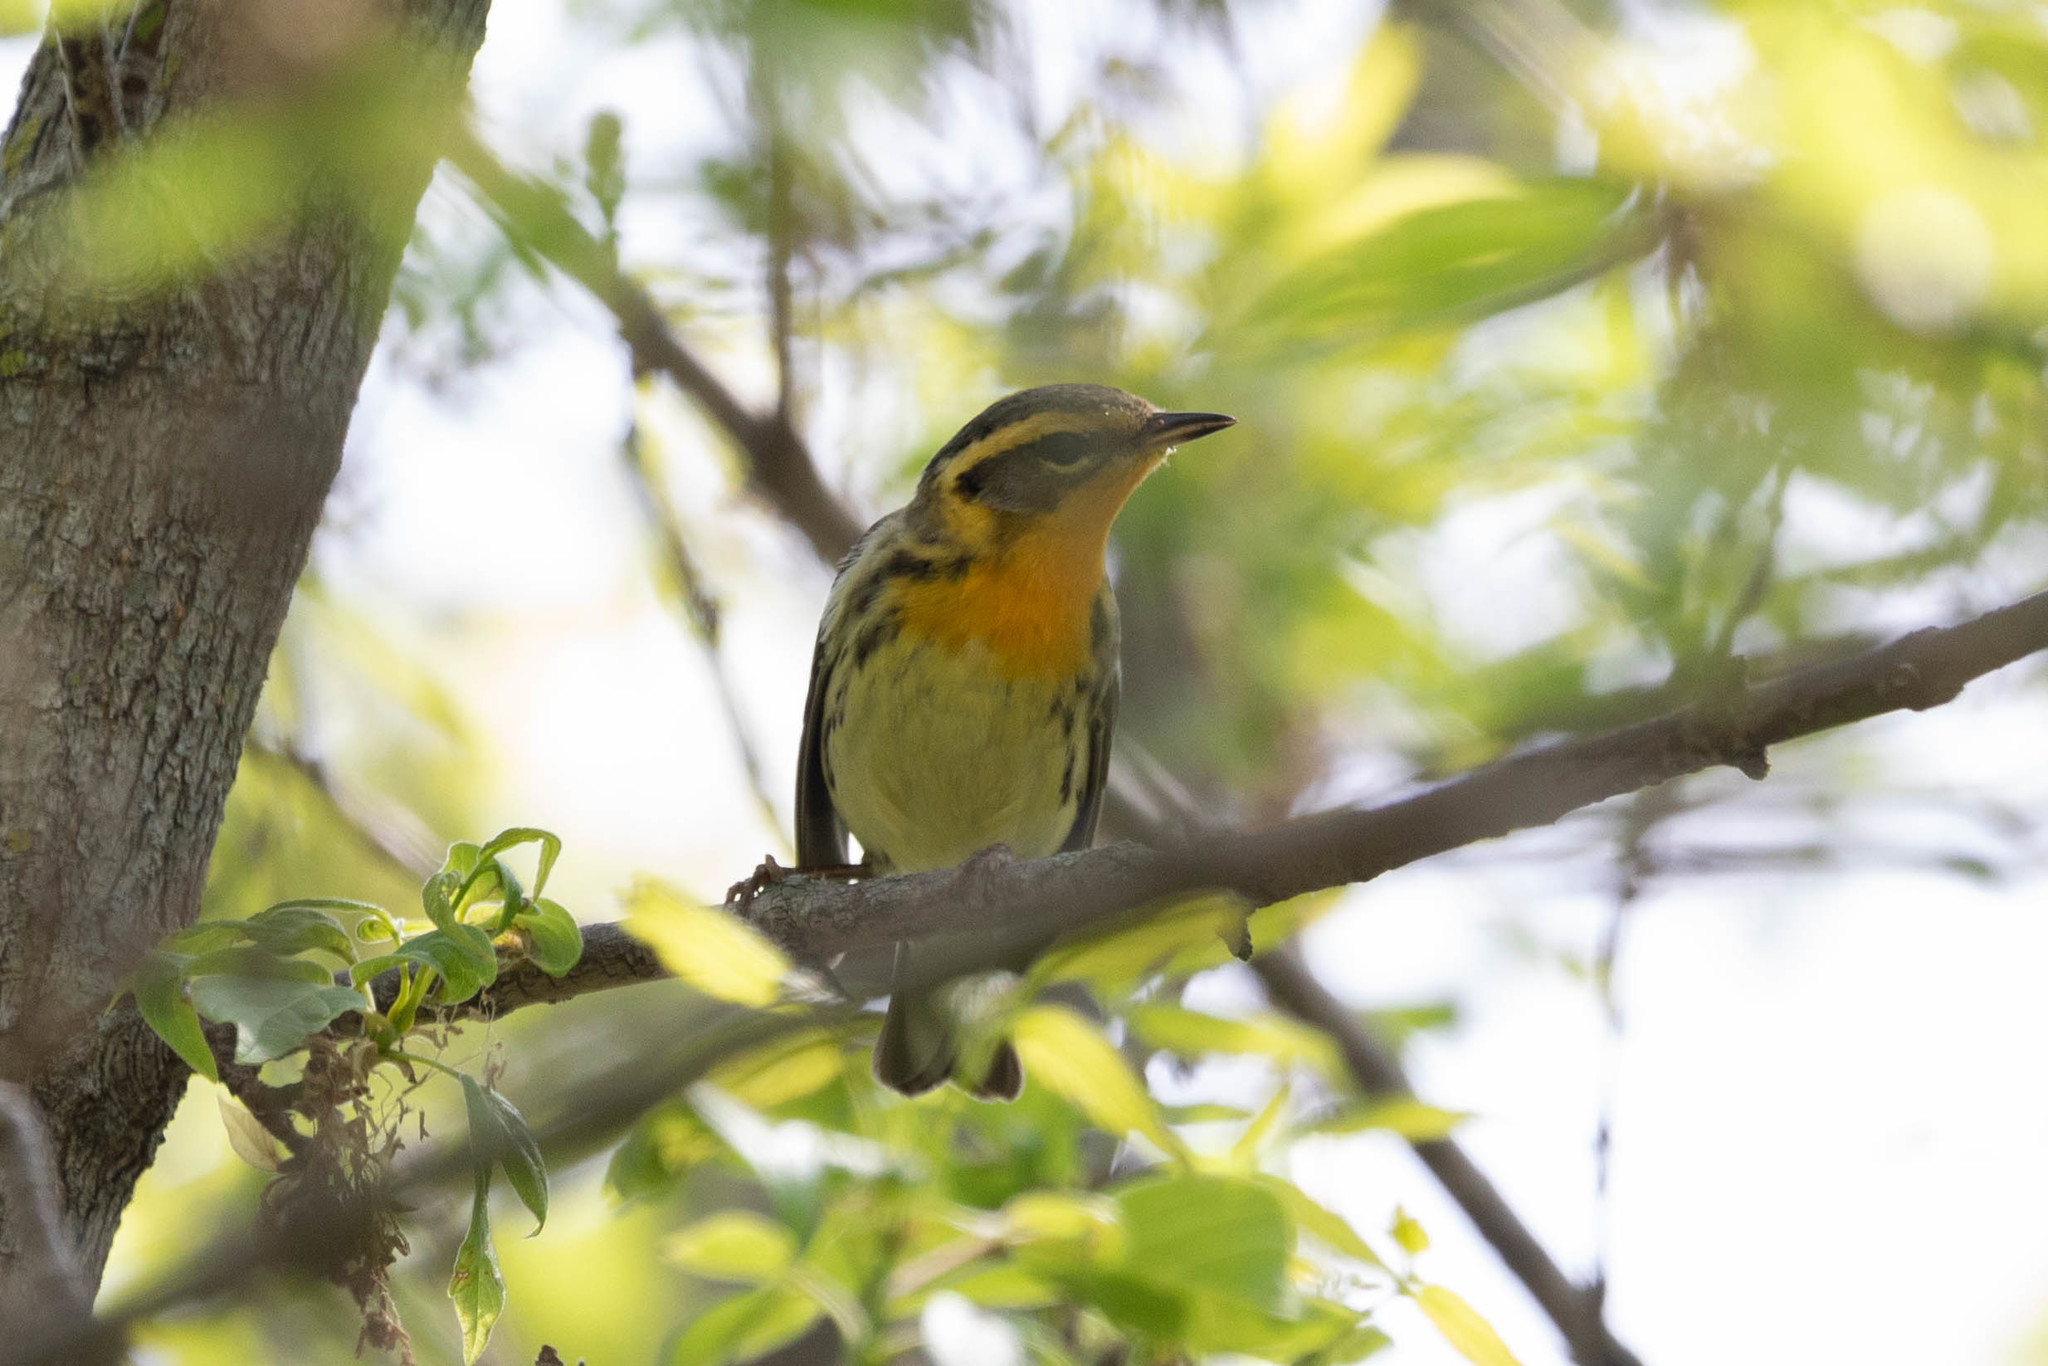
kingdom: Animalia
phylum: Chordata
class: Aves
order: Passeriformes
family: Parulidae
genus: Setophaga
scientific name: Setophaga fusca
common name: Blackburnian warbler
